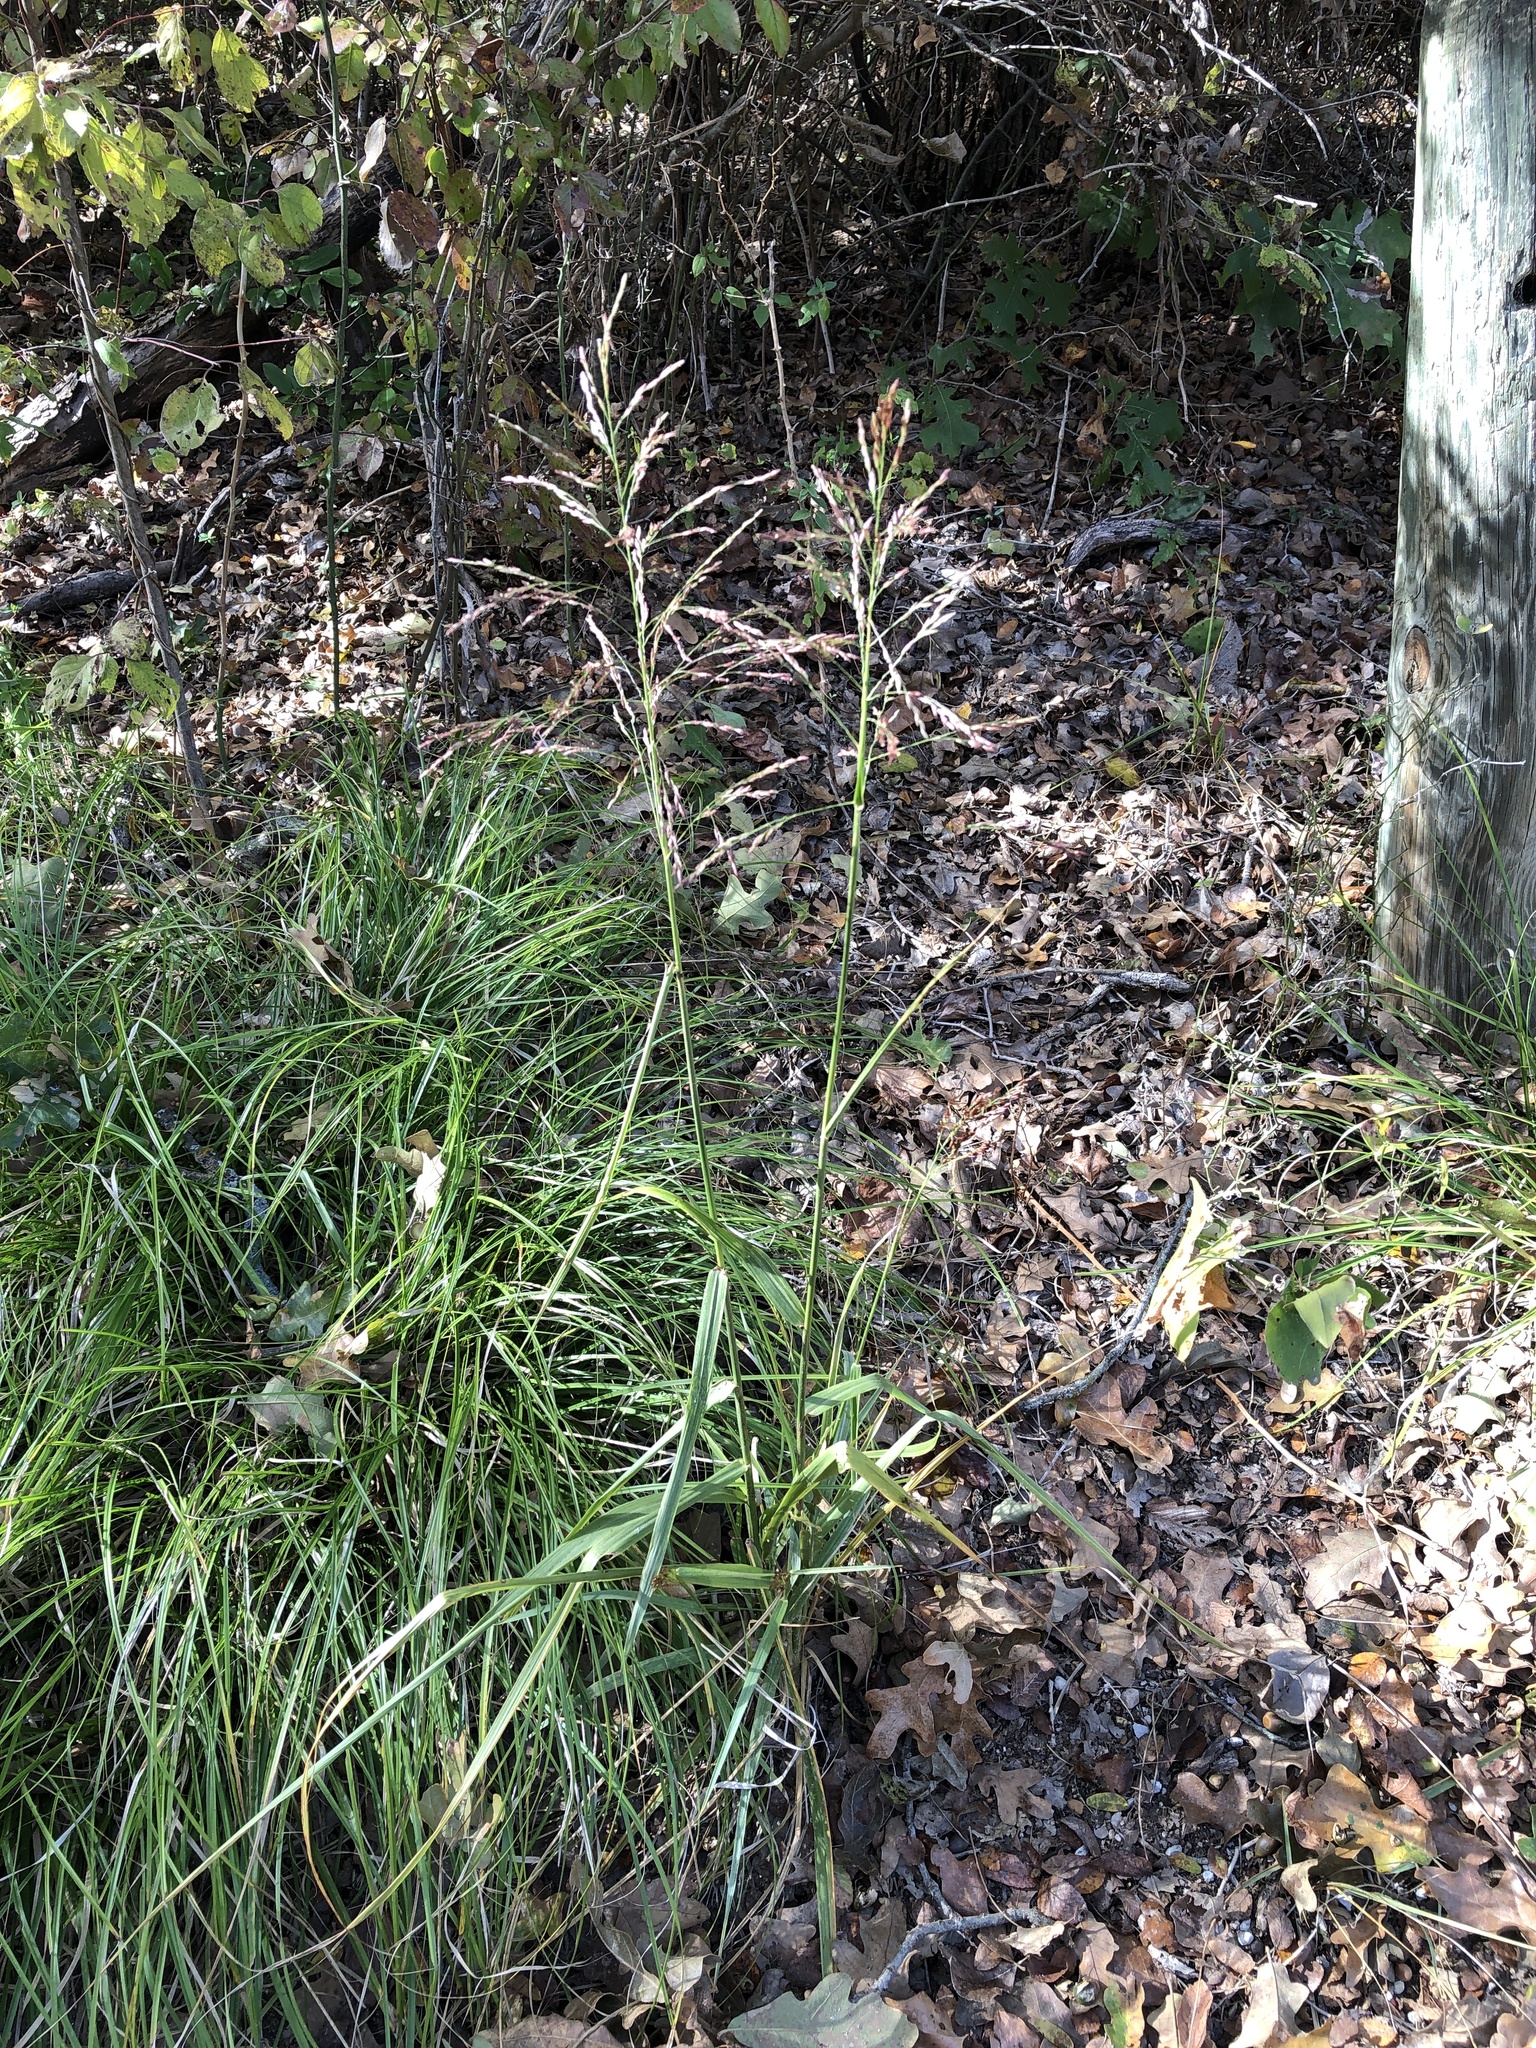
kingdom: Plantae
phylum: Tracheophyta
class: Liliopsida
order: Poales
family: Poaceae
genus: Tridens
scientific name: Tridens flavus
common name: Purpletop
